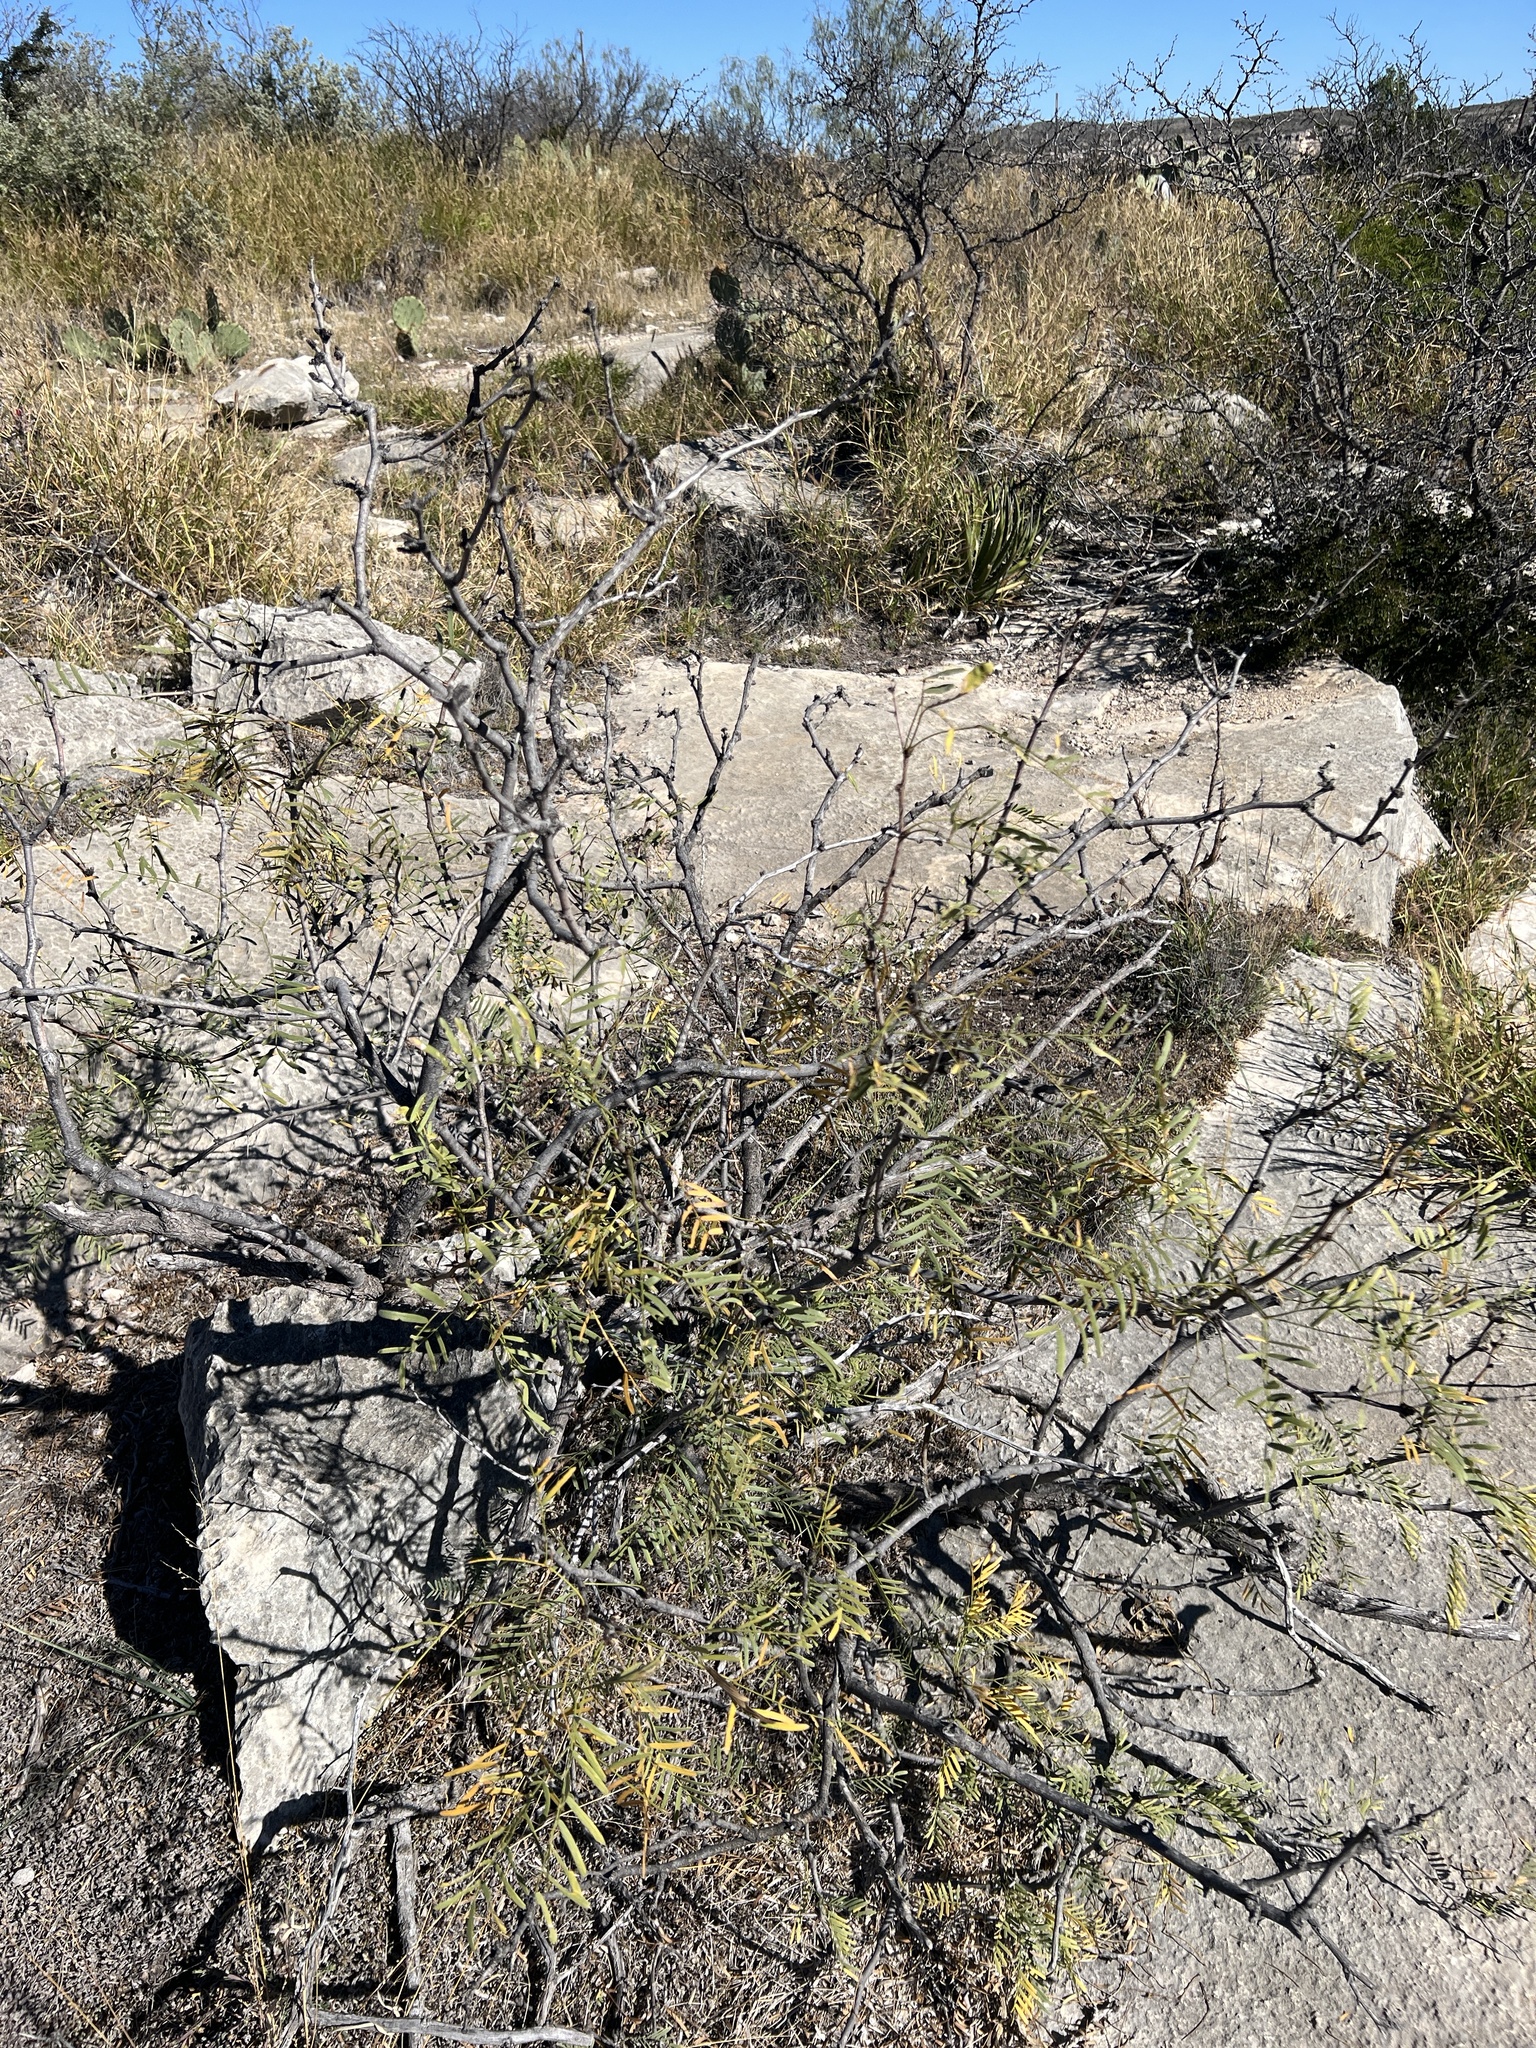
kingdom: Plantae
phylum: Tracheophyta
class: Magnoliopsida
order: Fabales
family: Fabaceae
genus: Prosopis
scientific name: Prosopis glandulosa
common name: Honey mesquite
